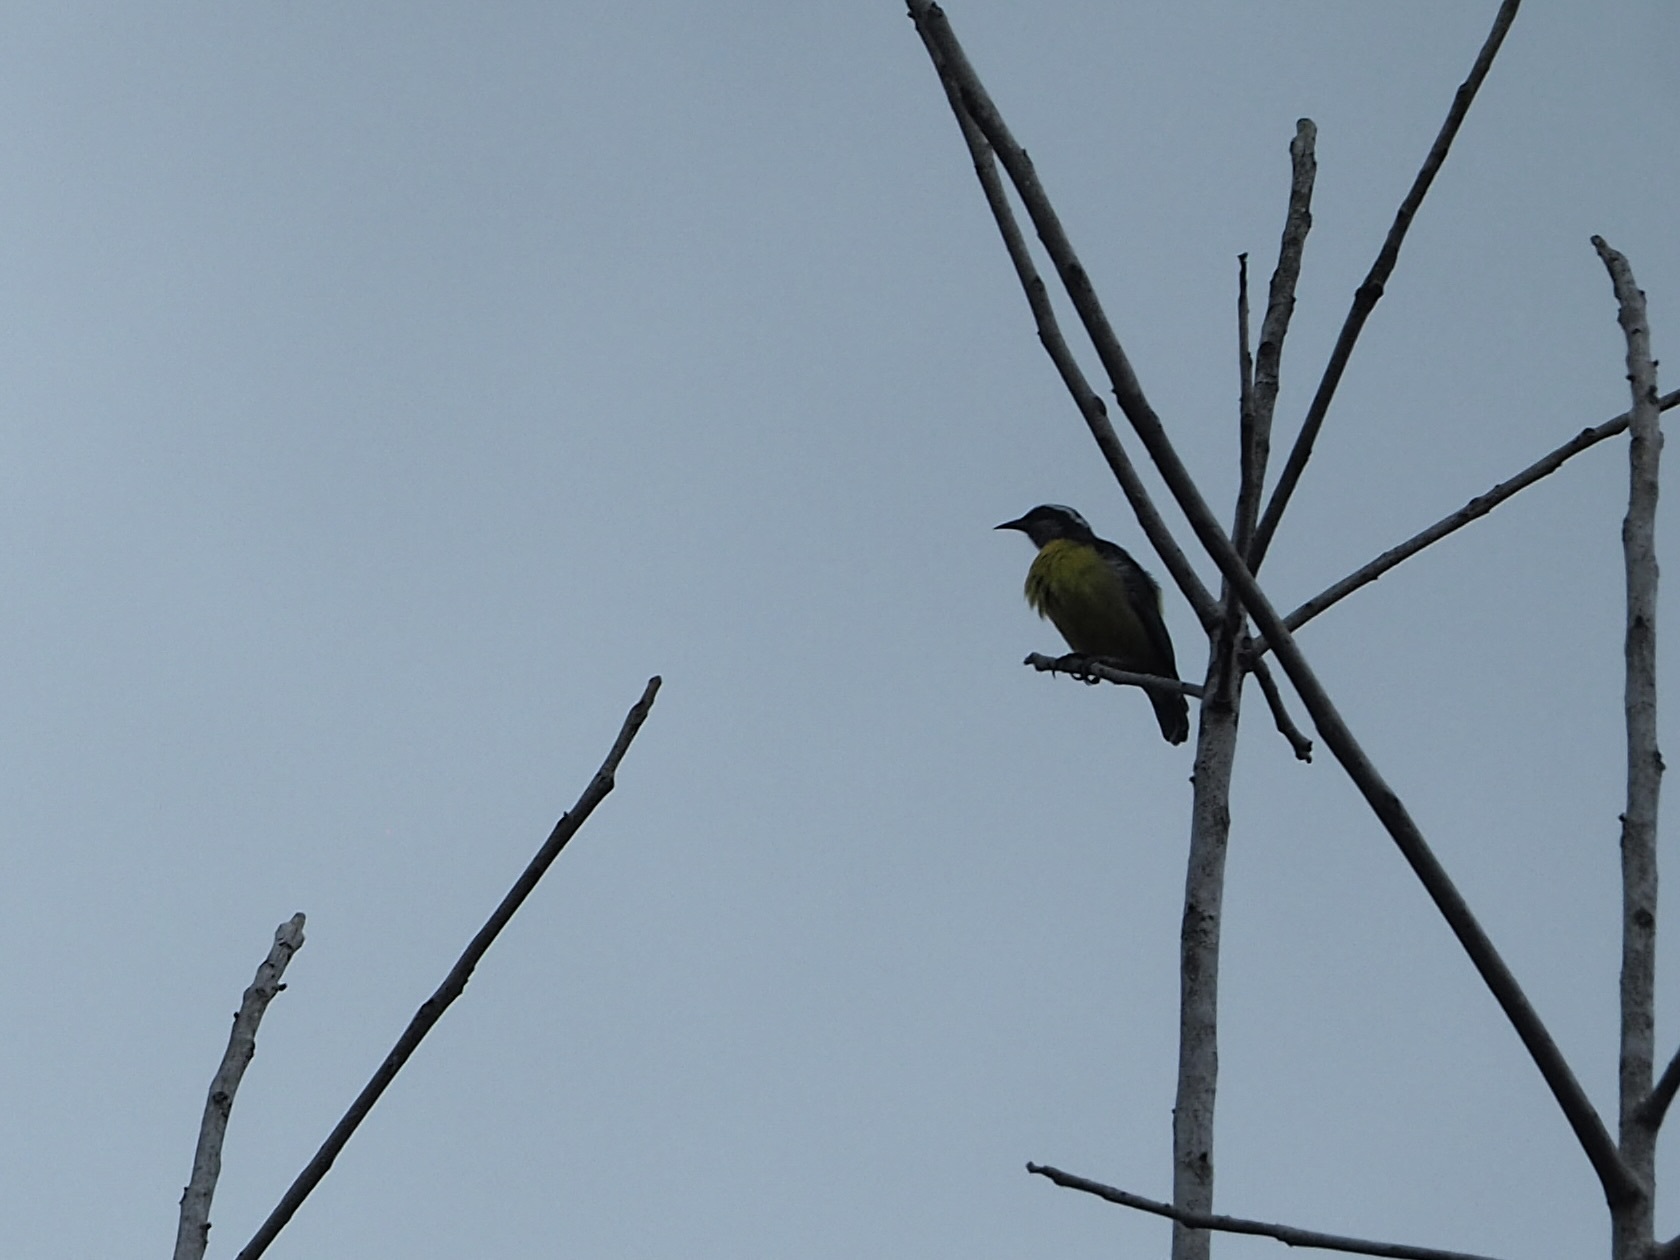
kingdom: Animalia
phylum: Chordata
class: Aves
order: Passeriformes
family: Tyrannidae
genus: Legatus
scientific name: Legatus leucophaius
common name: Piratic flycatcher
